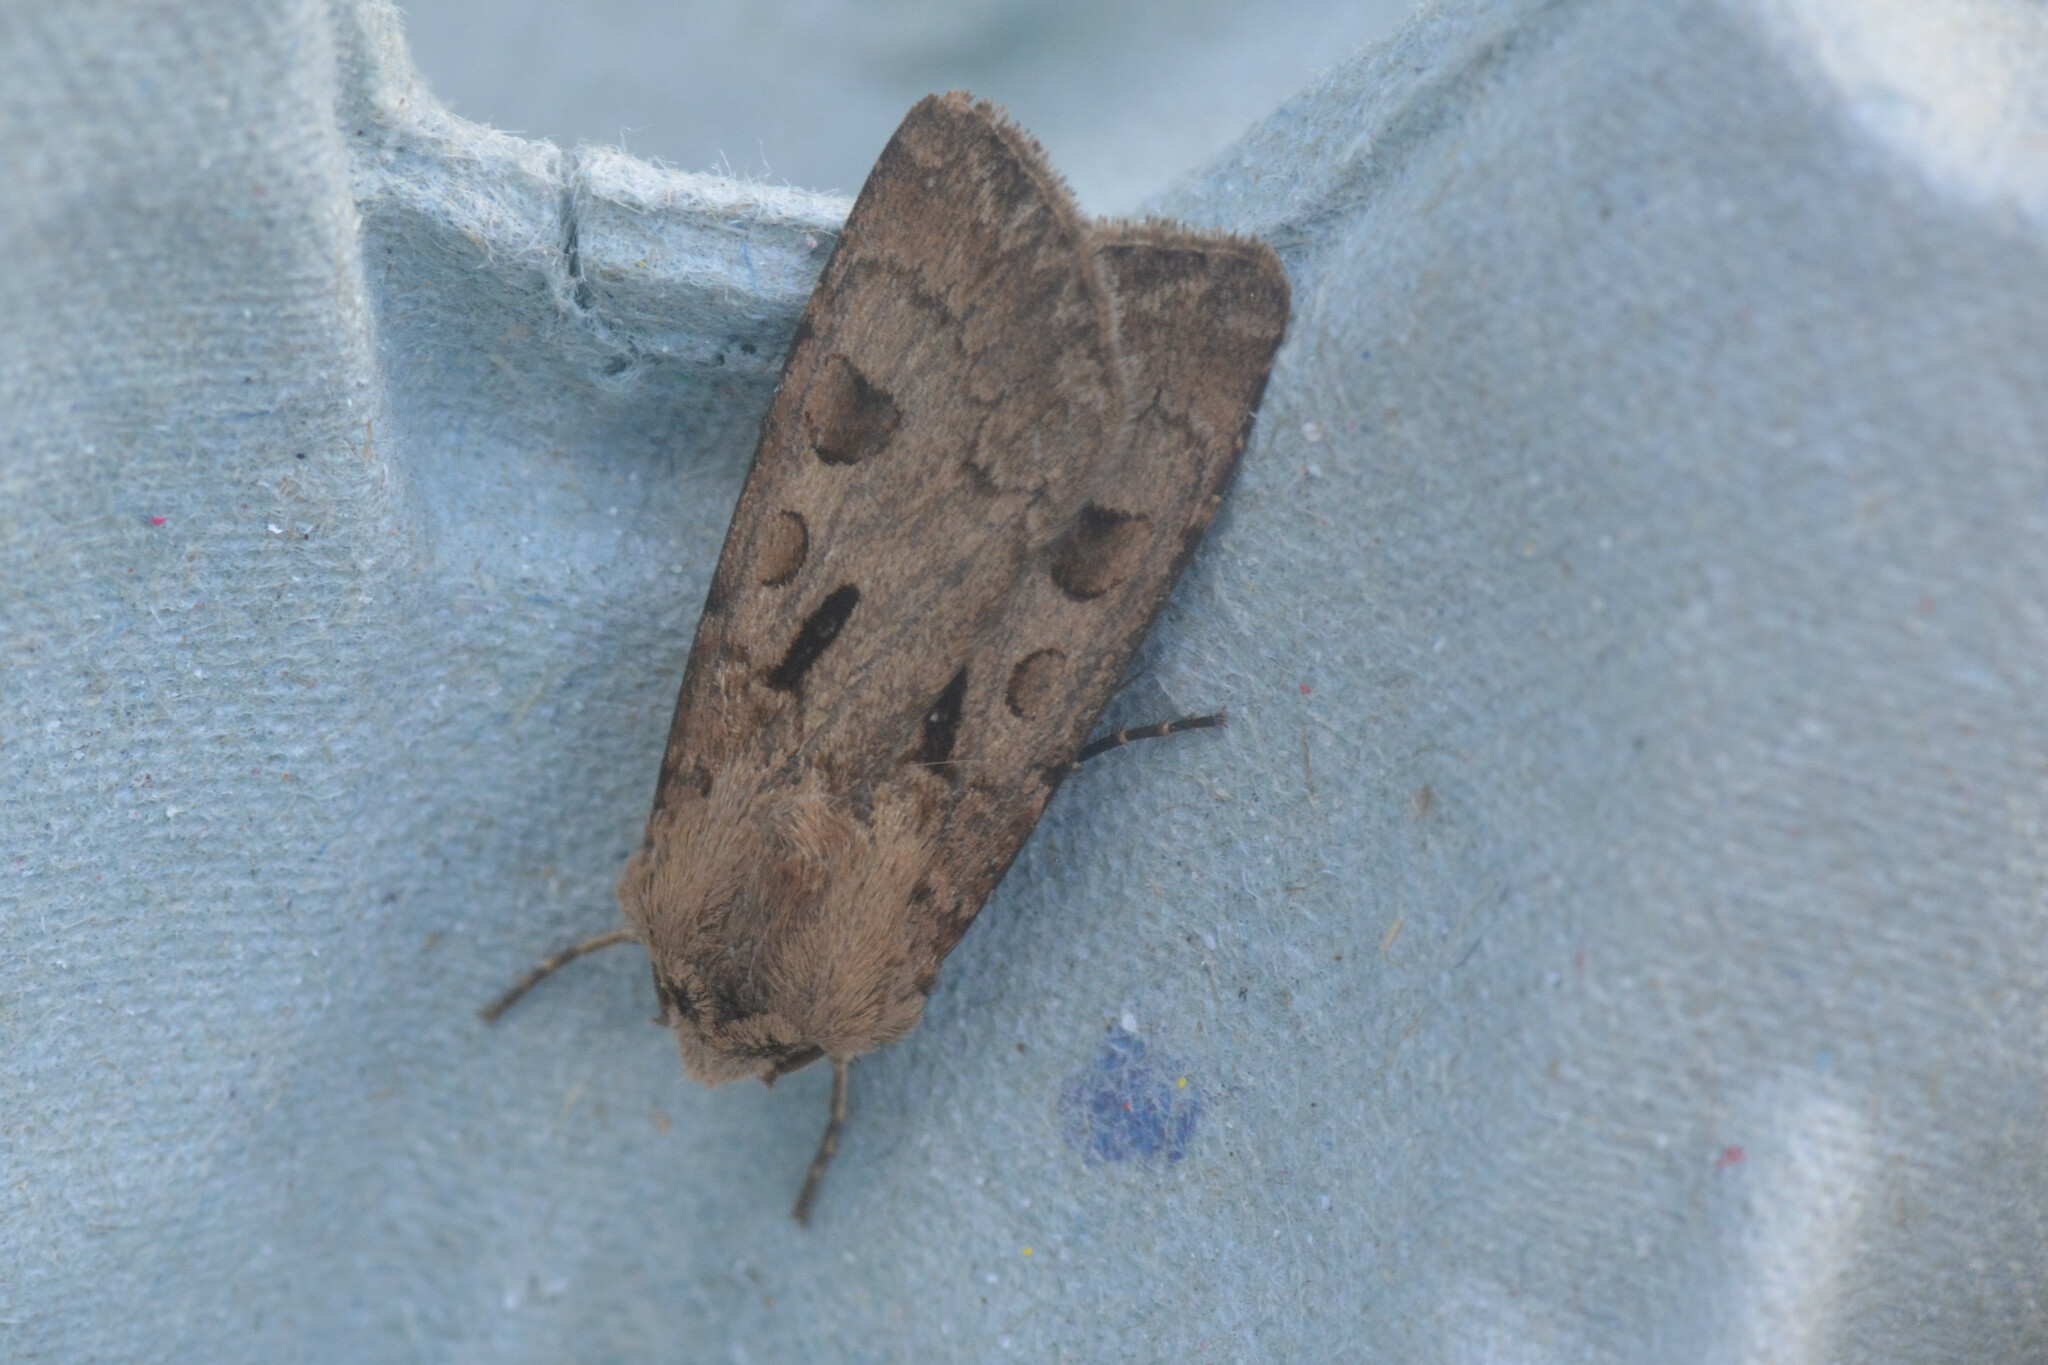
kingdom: Animalia
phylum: Arthropoda
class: Insecta
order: Lepidoptera
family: Noctuidae
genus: Agrotis
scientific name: Agrotis exclamationis
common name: Heart and dart
